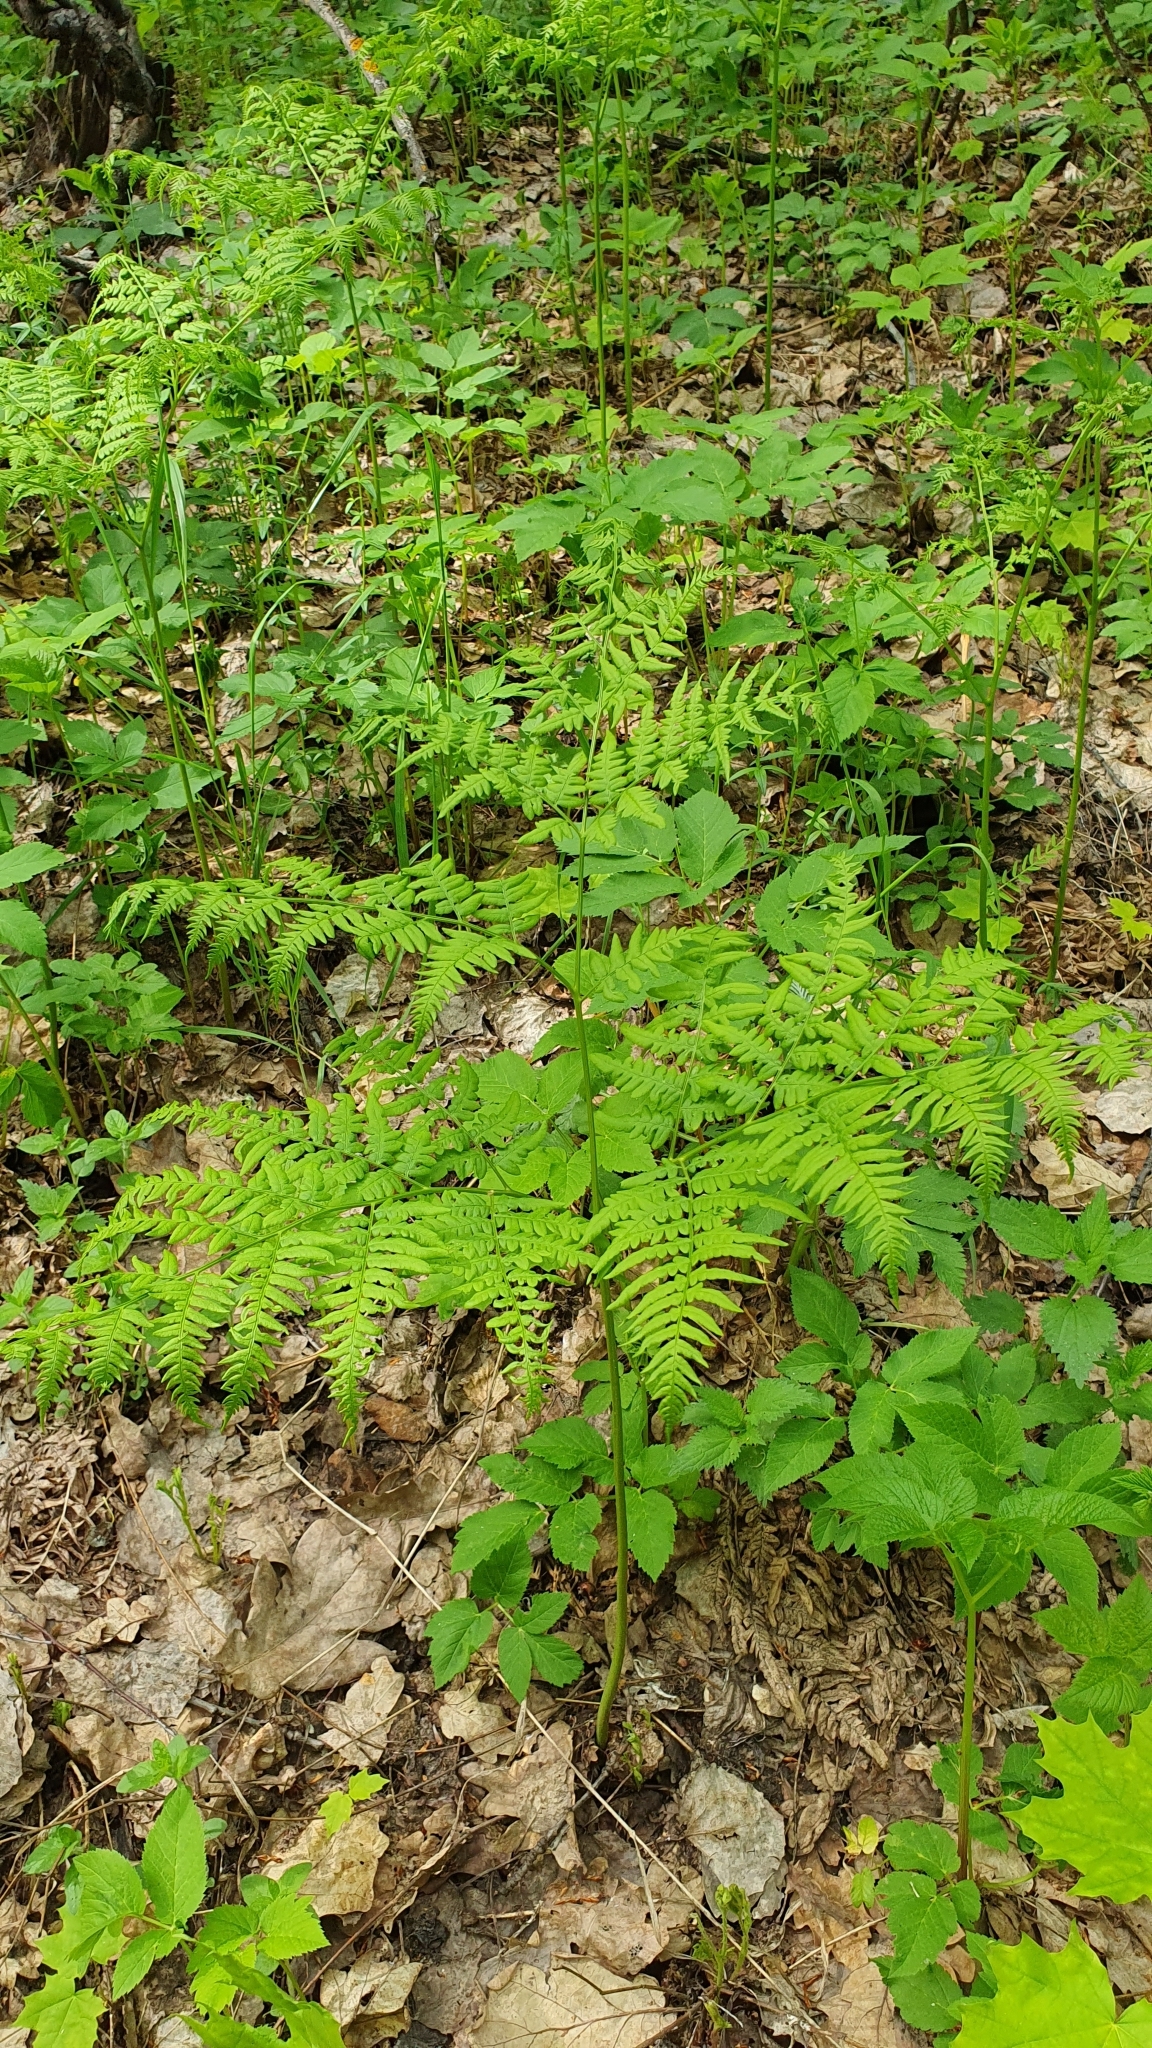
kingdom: Plantae
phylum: Tracheophyta
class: Polypodiopsida
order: Polypodiales
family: Dennstaedtiaceae
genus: Pteridium
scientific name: Pteridium aquilinum
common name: Bracken
